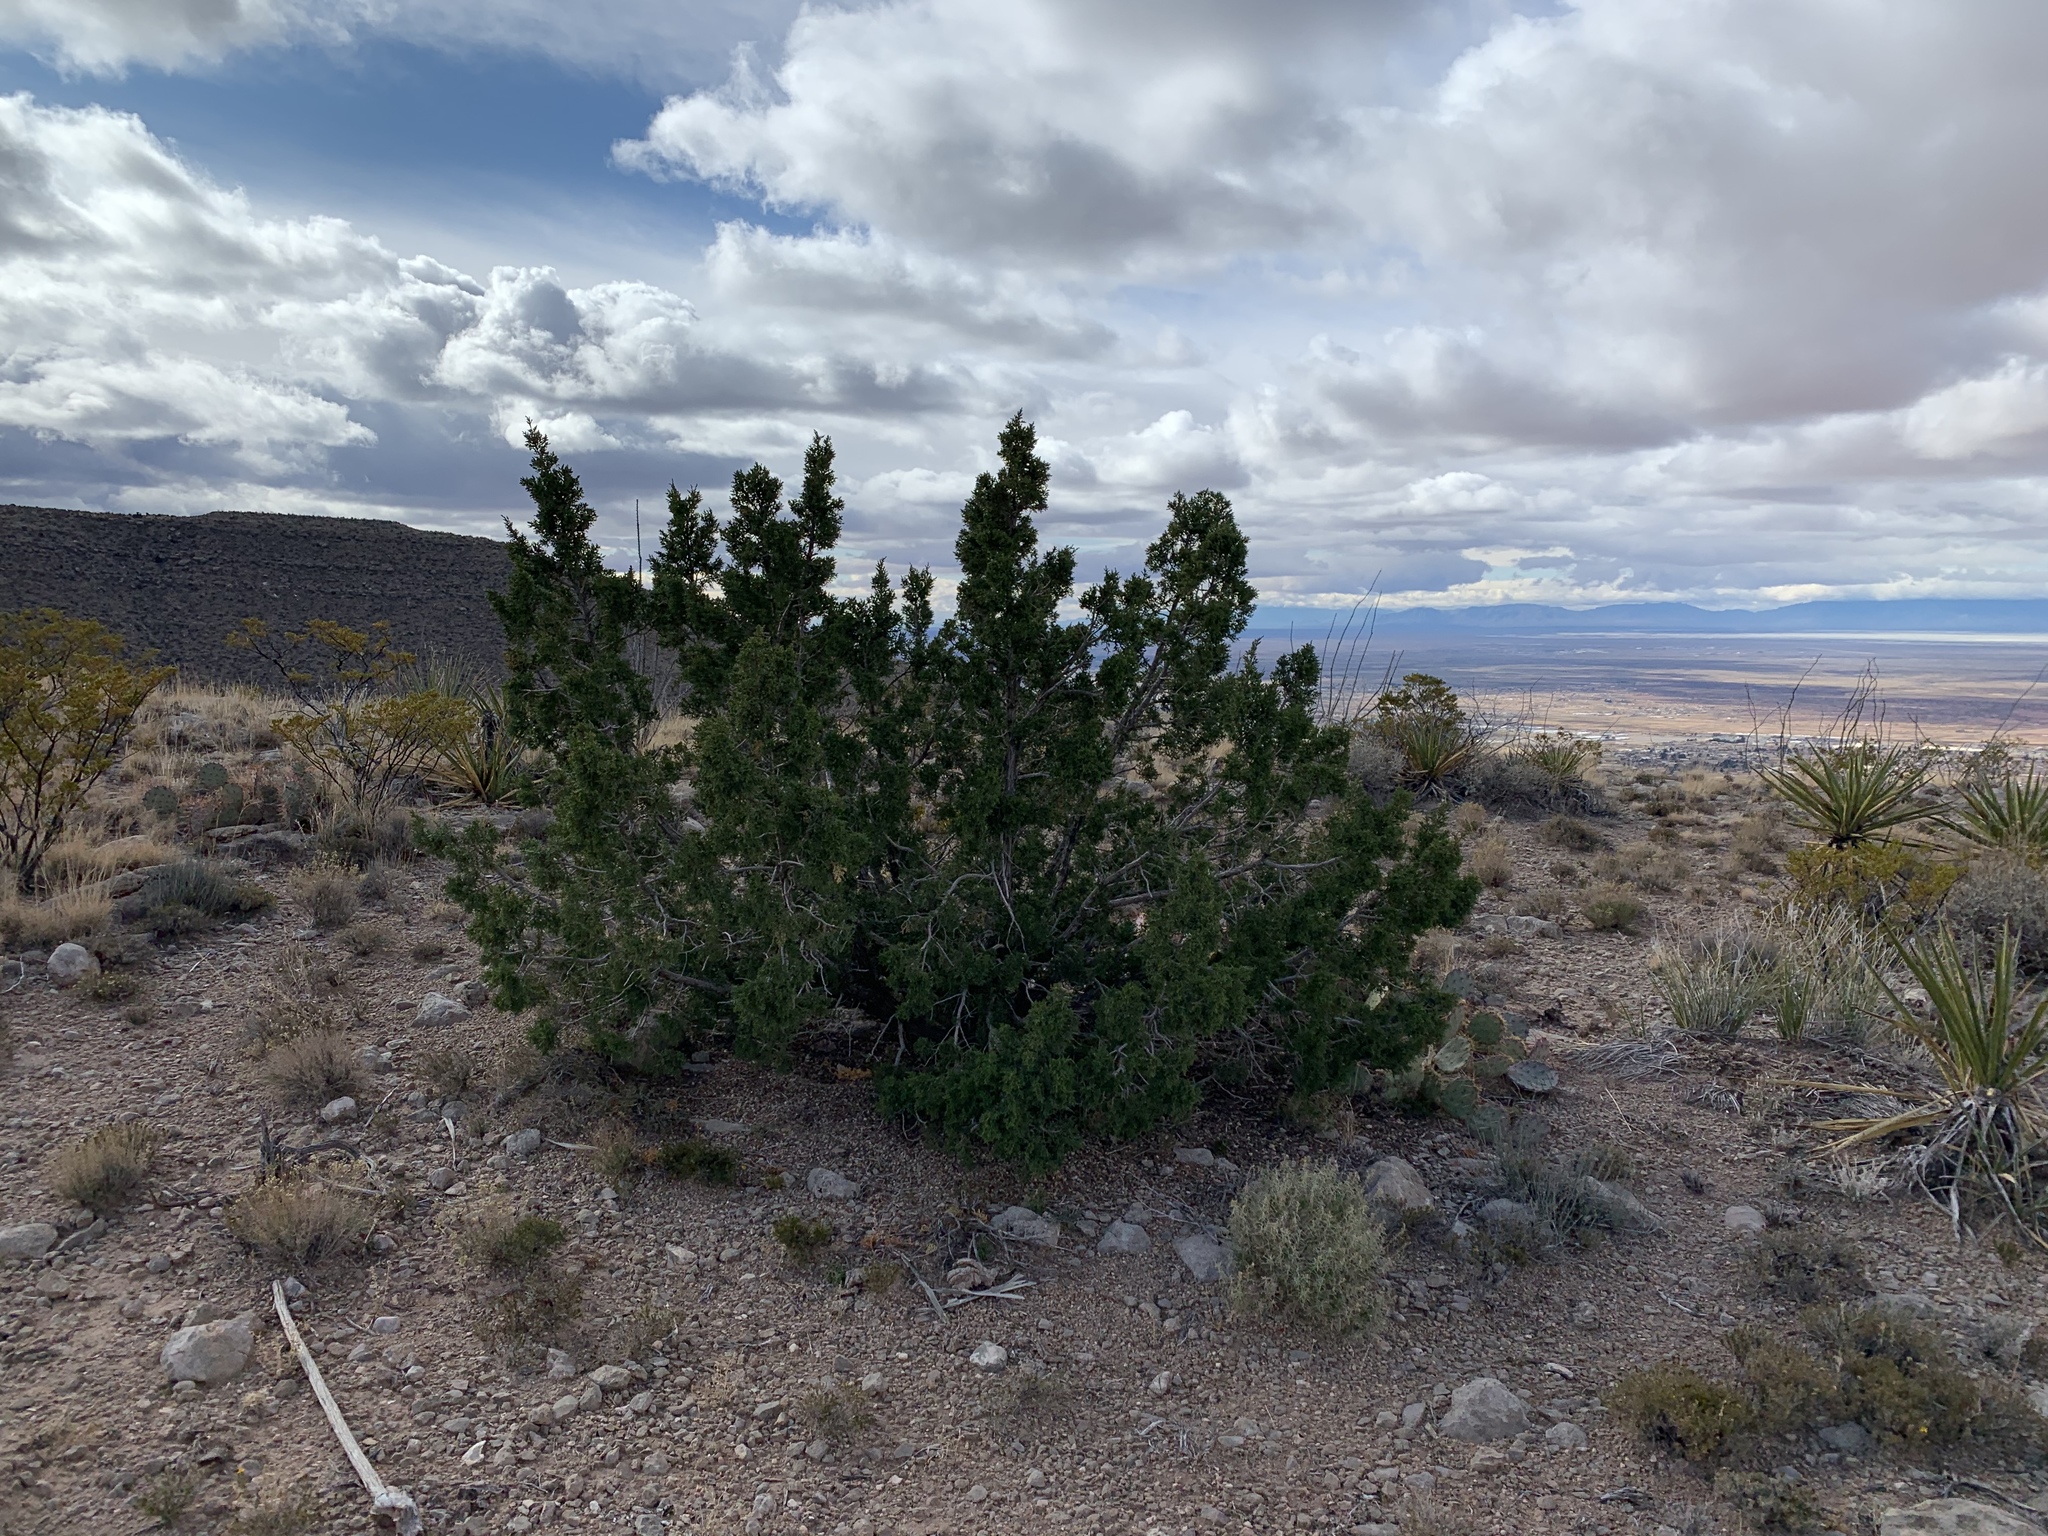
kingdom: Plantae
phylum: Tracheophyta
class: Pinopsida
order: Pinales
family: Cupressaceae
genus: Juniperus
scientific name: Juniperus monosperma
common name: One-seed juniper
